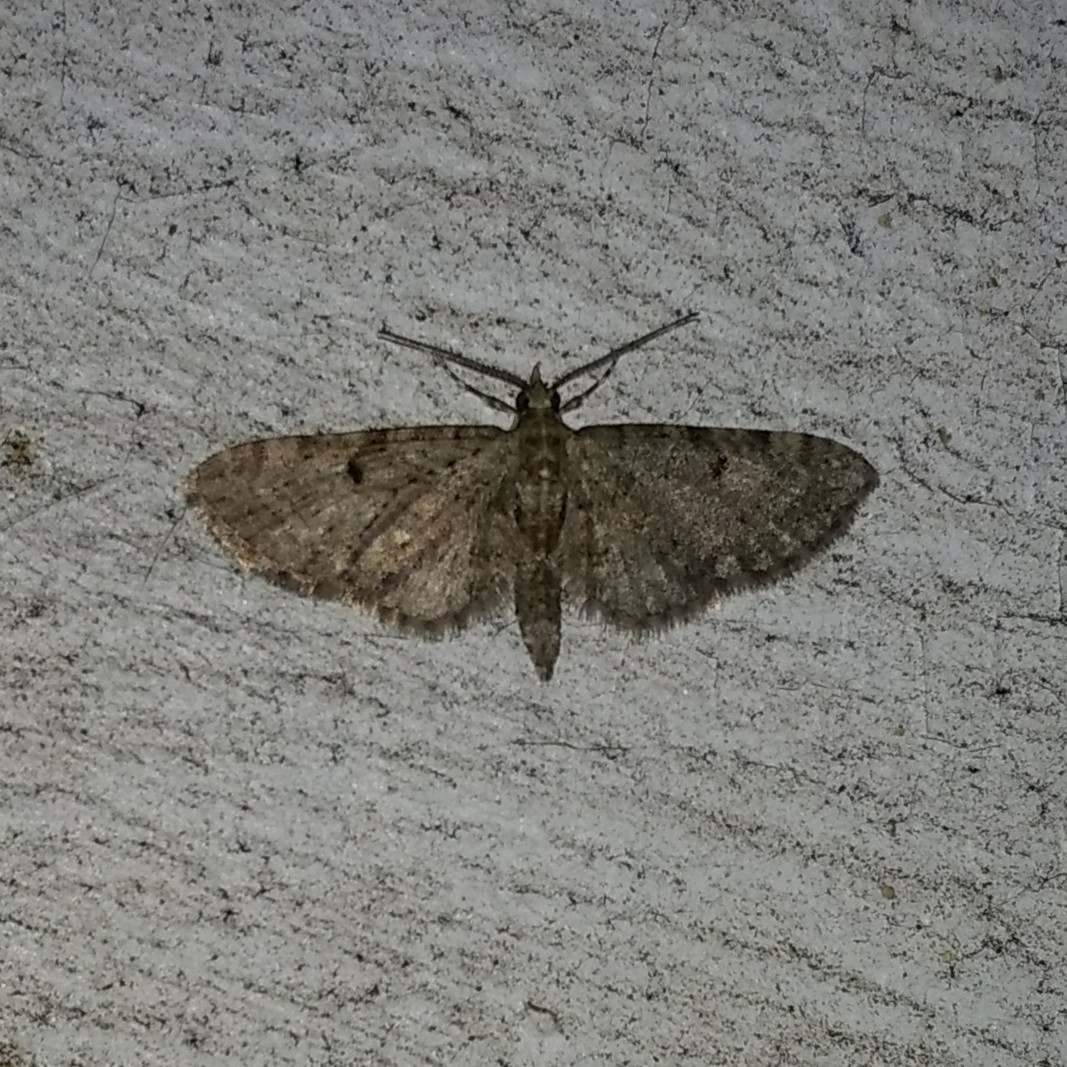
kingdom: Animalia
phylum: Arthropoda
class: Insecta
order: Lepidoptera
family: Geometridae
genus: Eupithecia
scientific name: Eupithecia miserulata
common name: Common eupithecia
